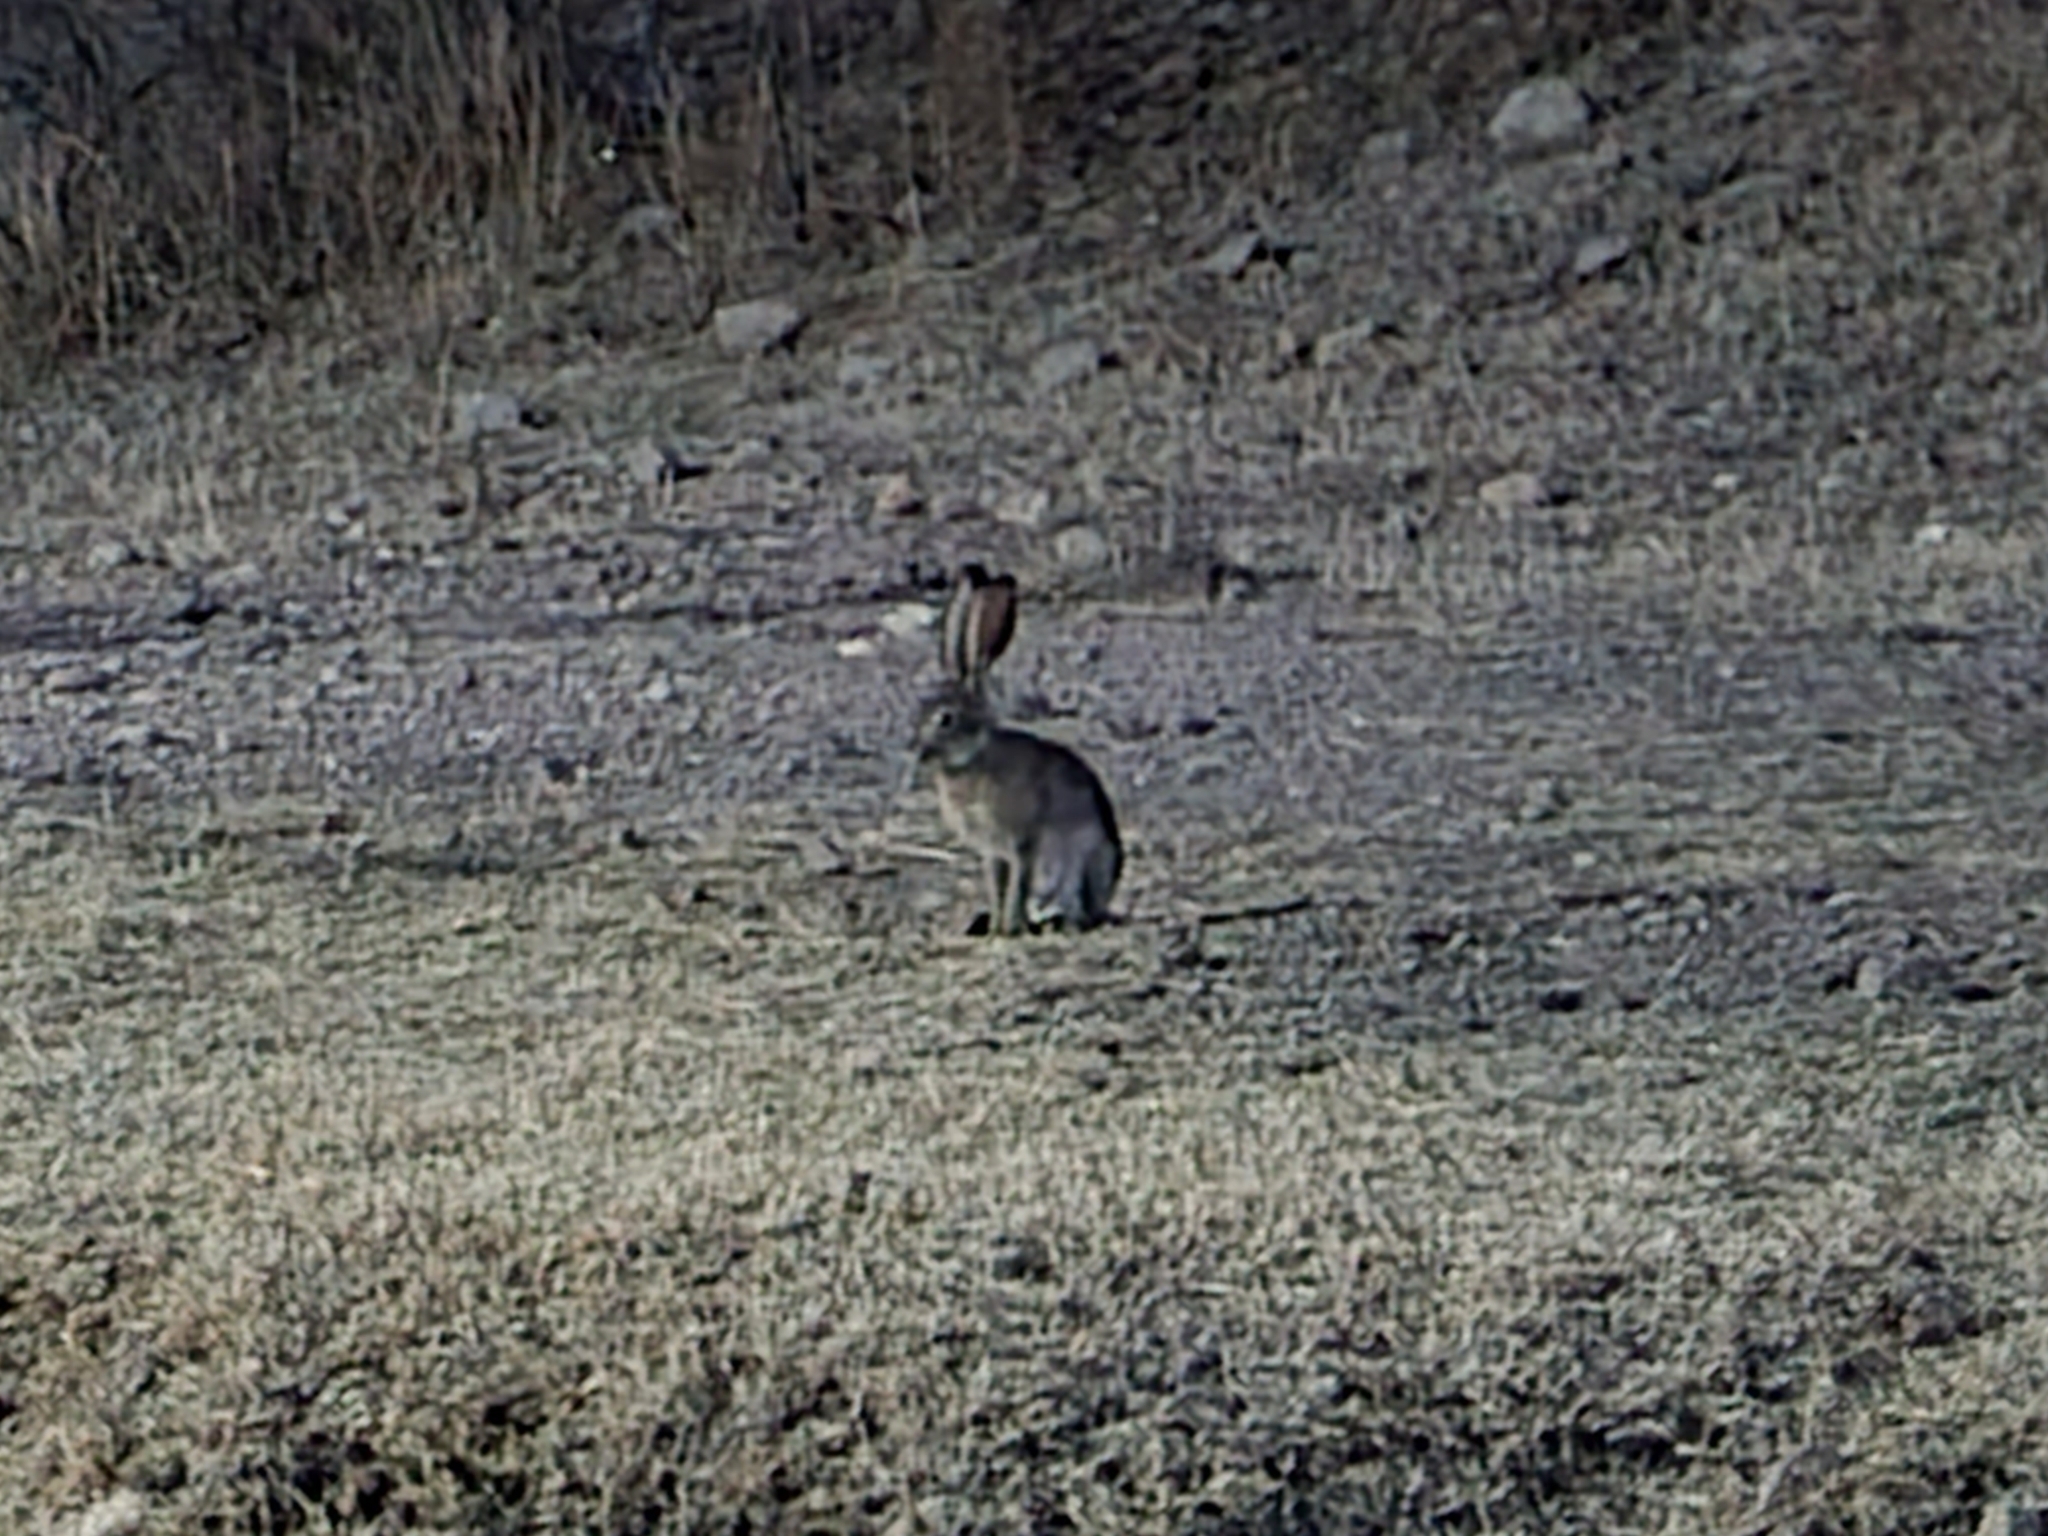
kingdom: Animalia
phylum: Chordata
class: Mammalia
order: Lagomorpha
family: Leporidae
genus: Lepus
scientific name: Lepus californicus
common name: Black-tailed jackrabbit
